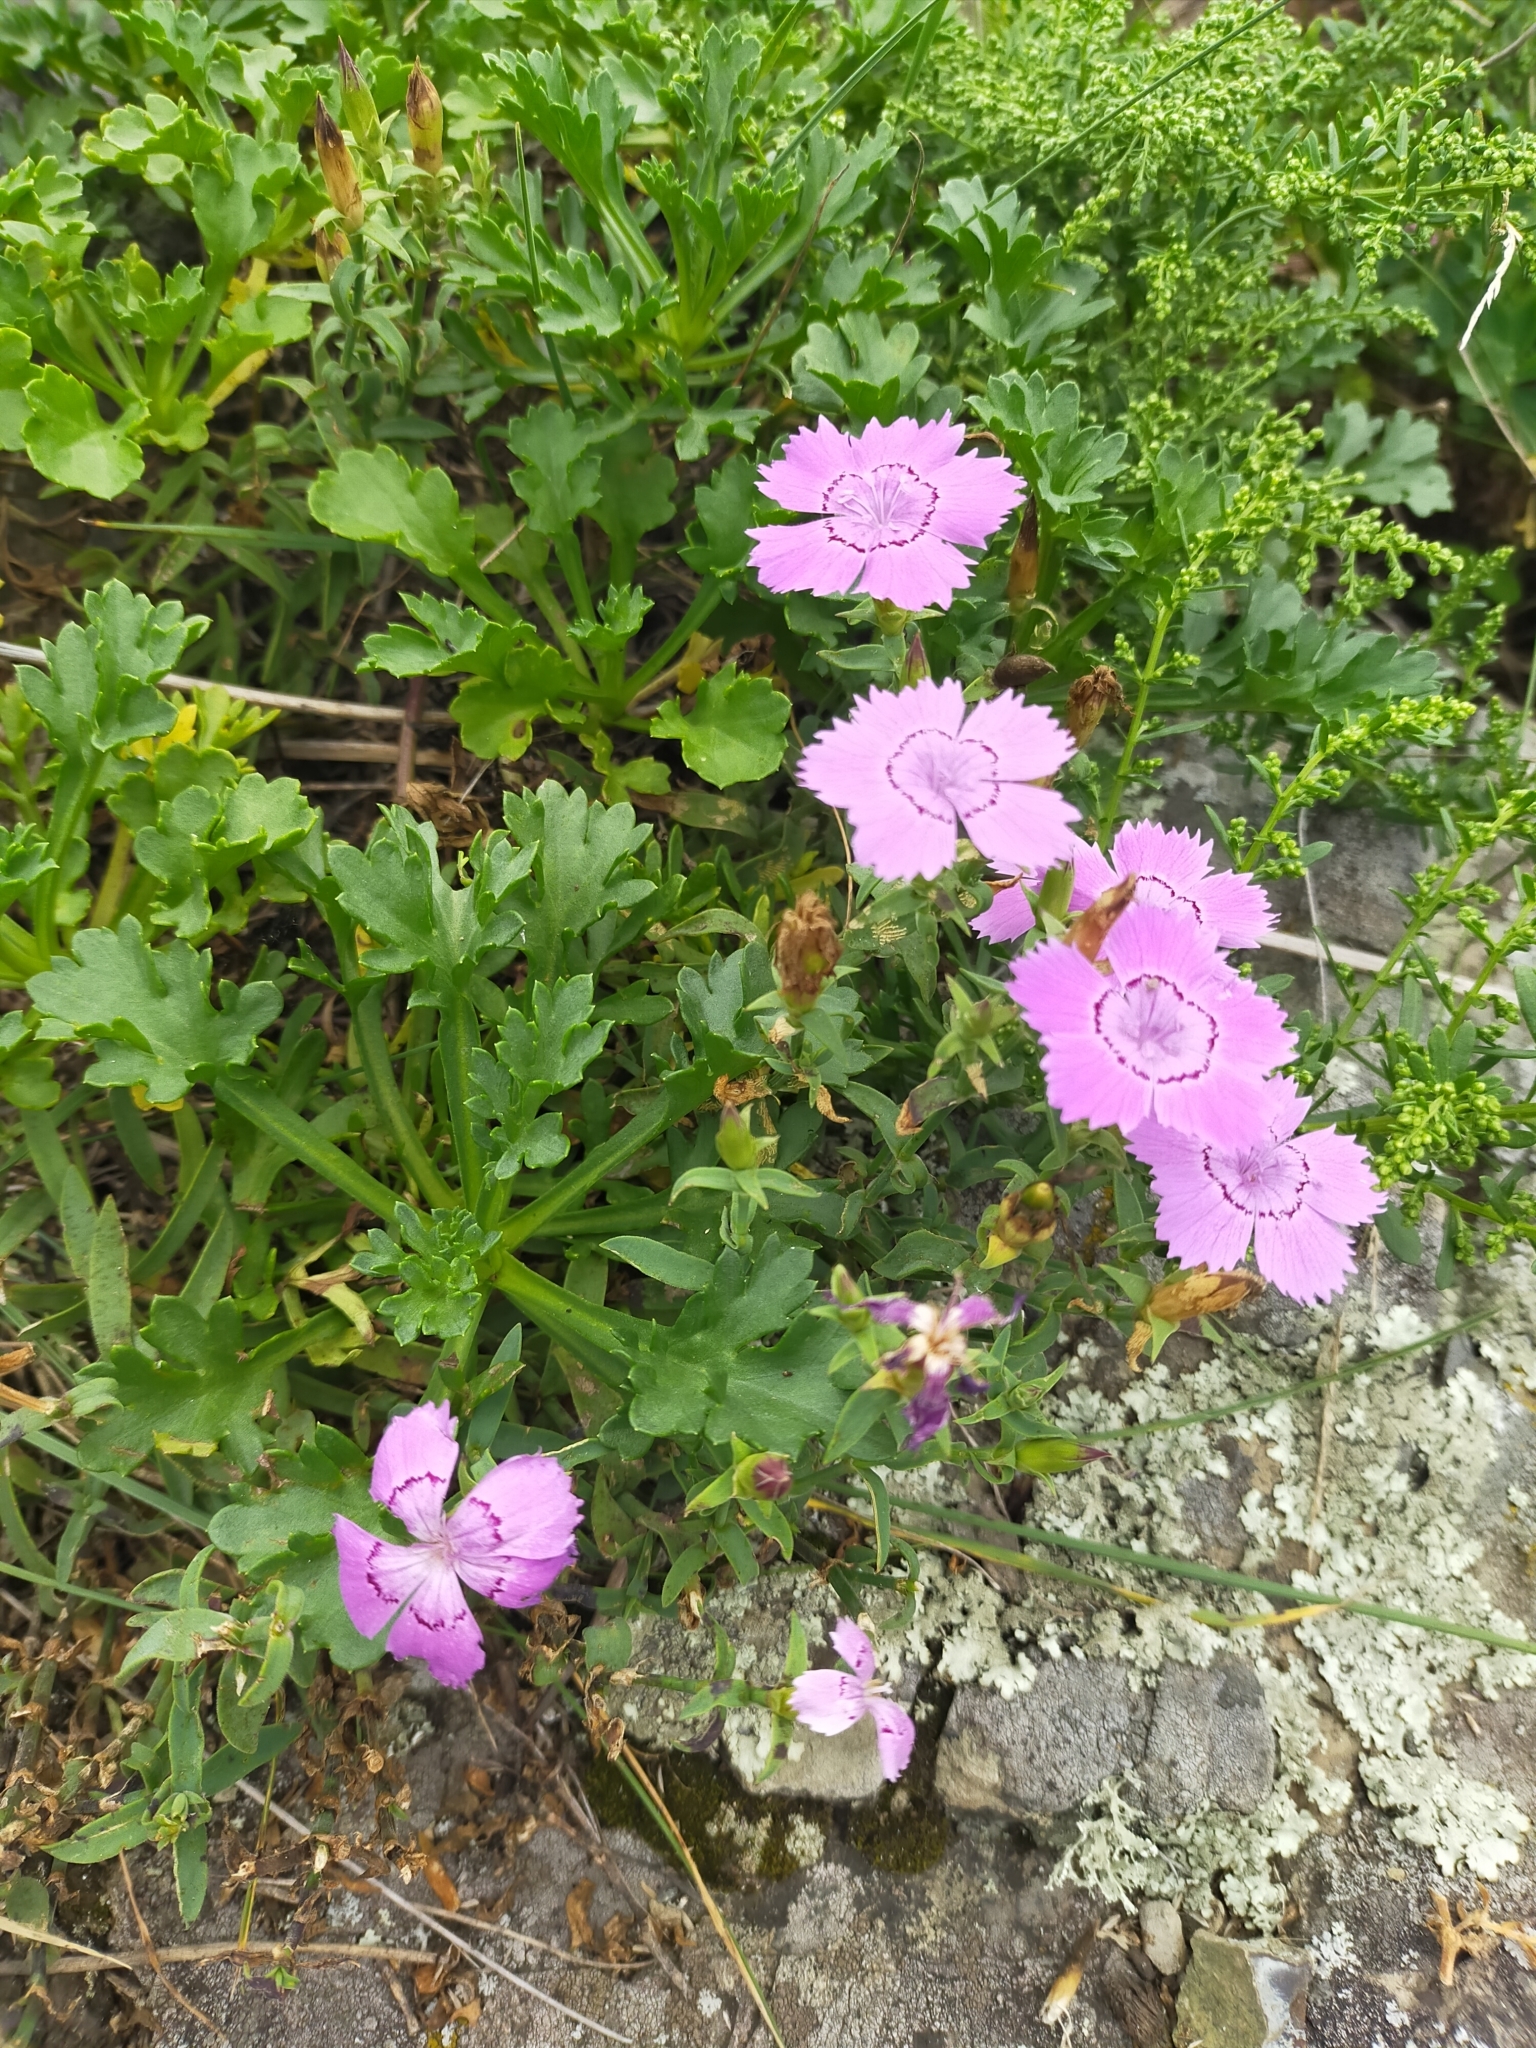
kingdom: Plantae
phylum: Tracheophyta
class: Magnoliopsida
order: Caryophyllales
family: Caryophyllaceae
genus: Dianthus
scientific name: Dianthus chinensis
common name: Rainbow pink
